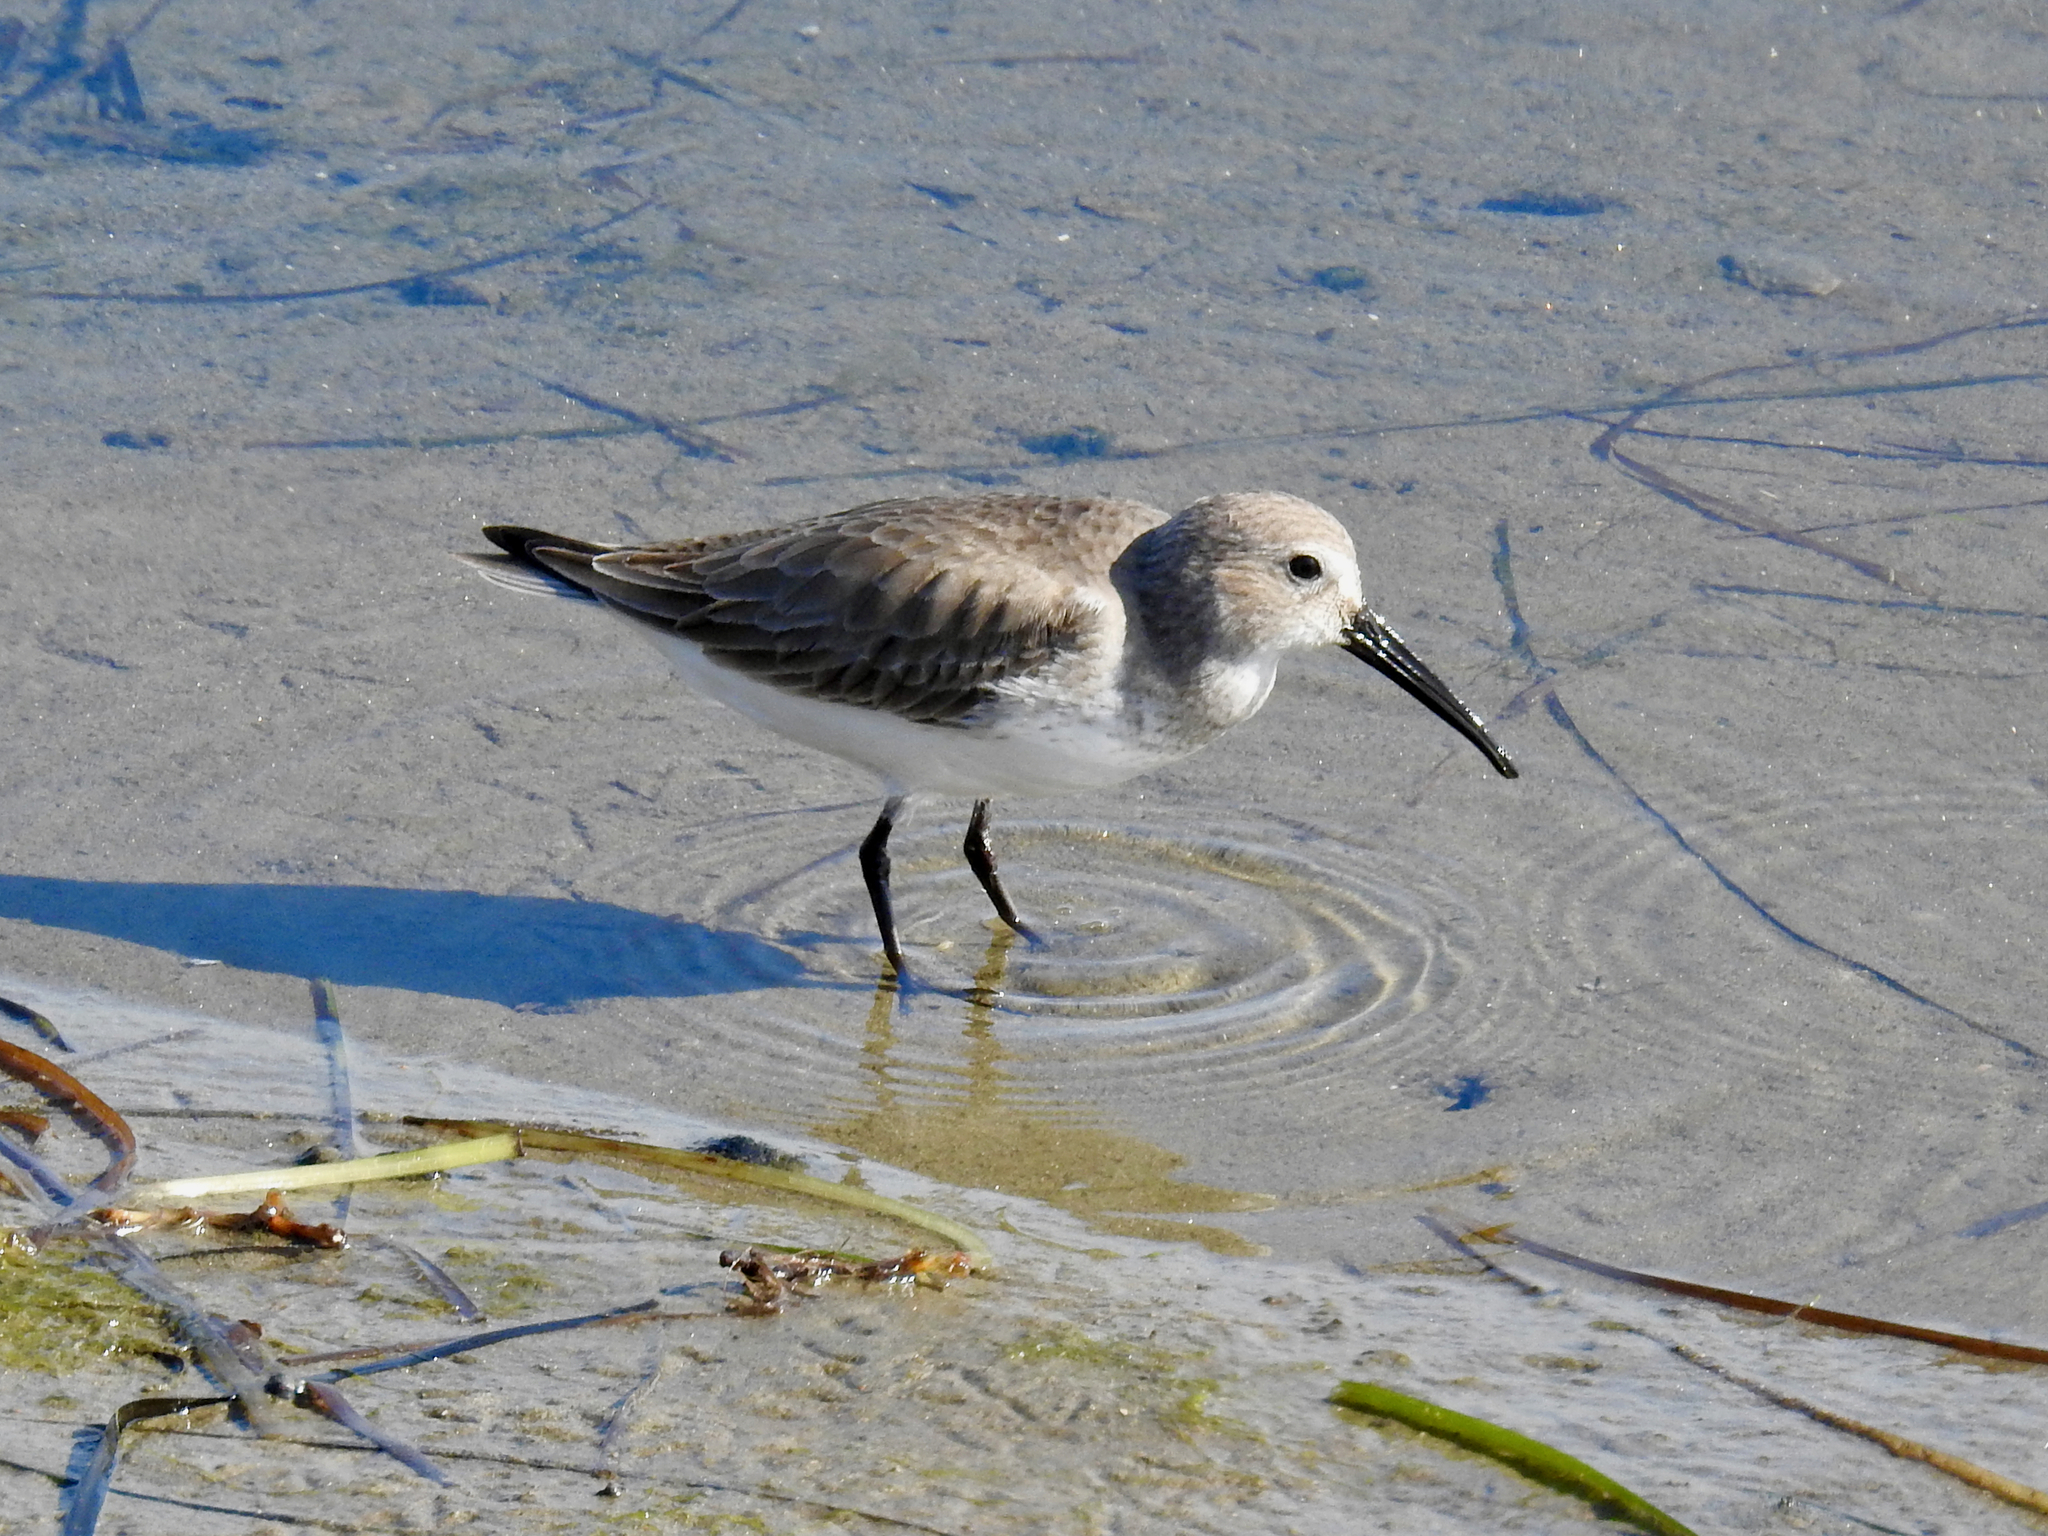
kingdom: Animalia
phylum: Chordata
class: Aves
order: Charadriiformes
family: Scolopacidae
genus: Calidris
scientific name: Calidris alpina
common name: Dunlin
